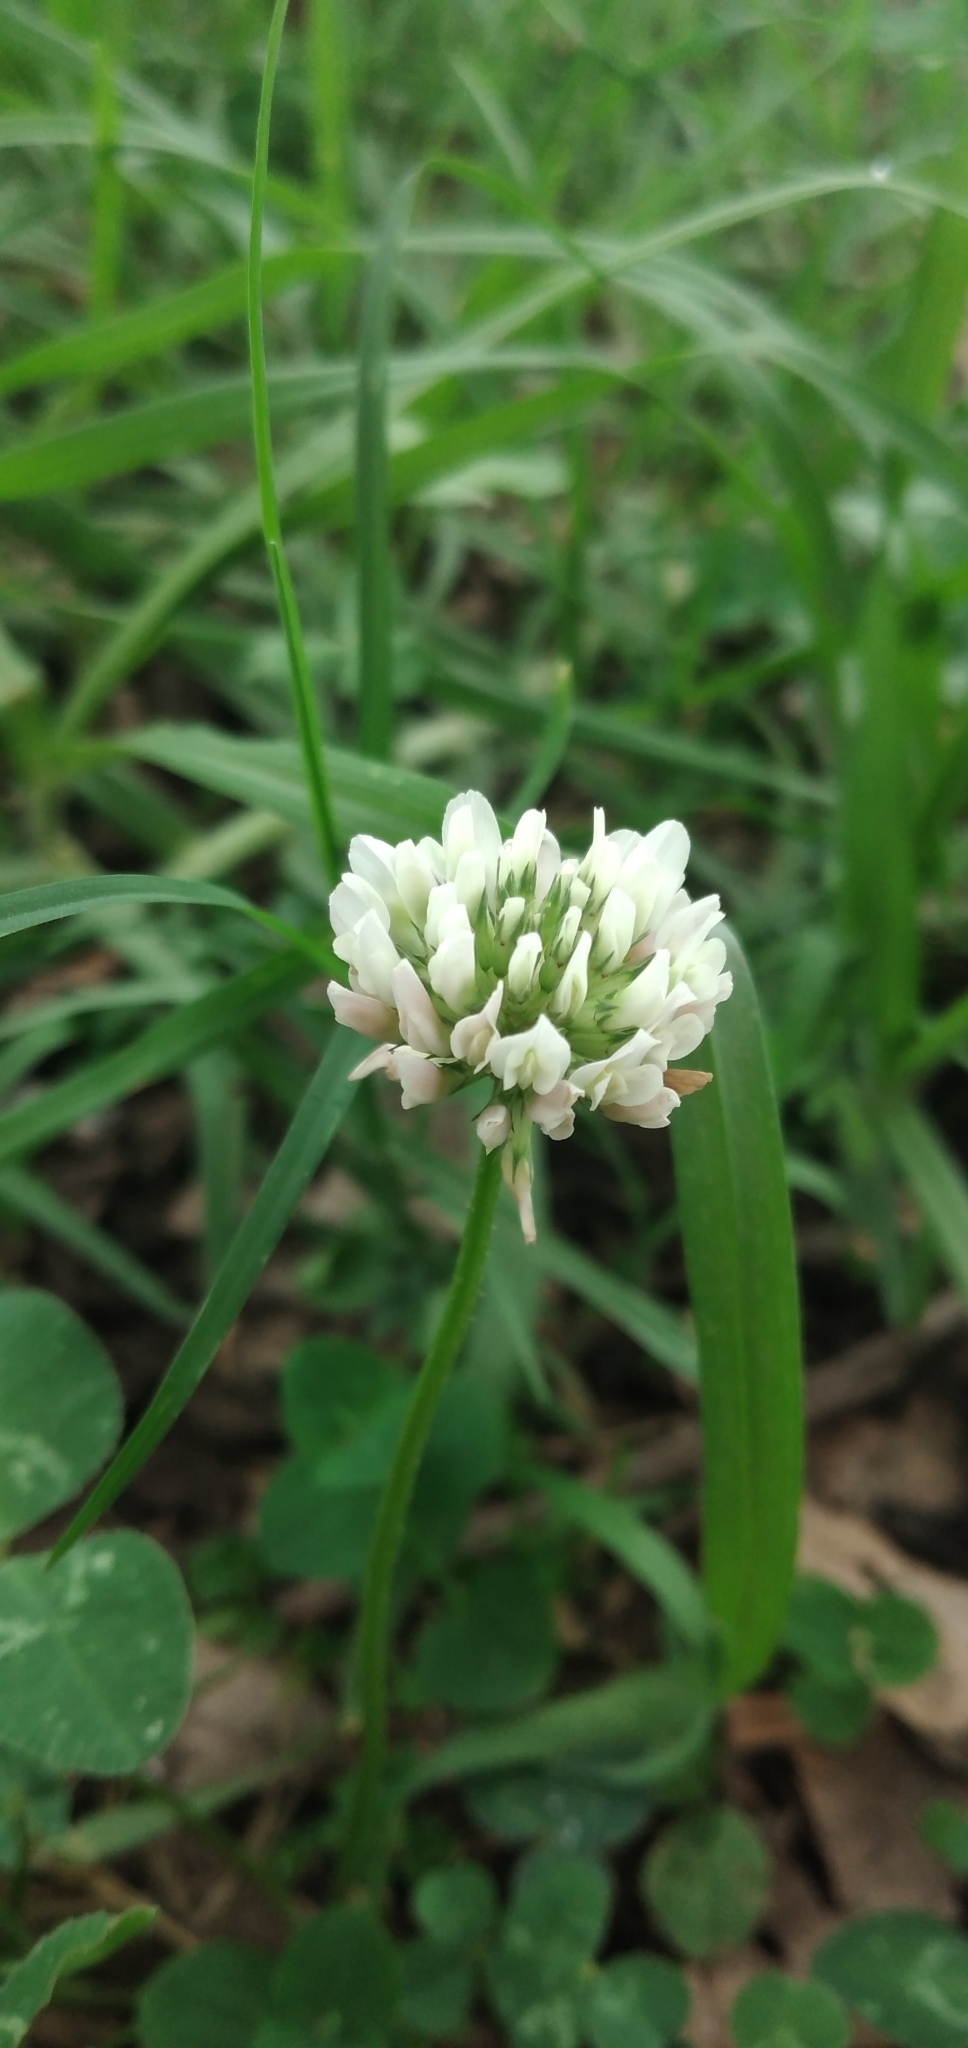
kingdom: Plantae
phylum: Tracheophyta
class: Magnoliopsida
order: Fabales
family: Fabaceae
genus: Trifolium
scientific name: Trifolium repens
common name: White clover
